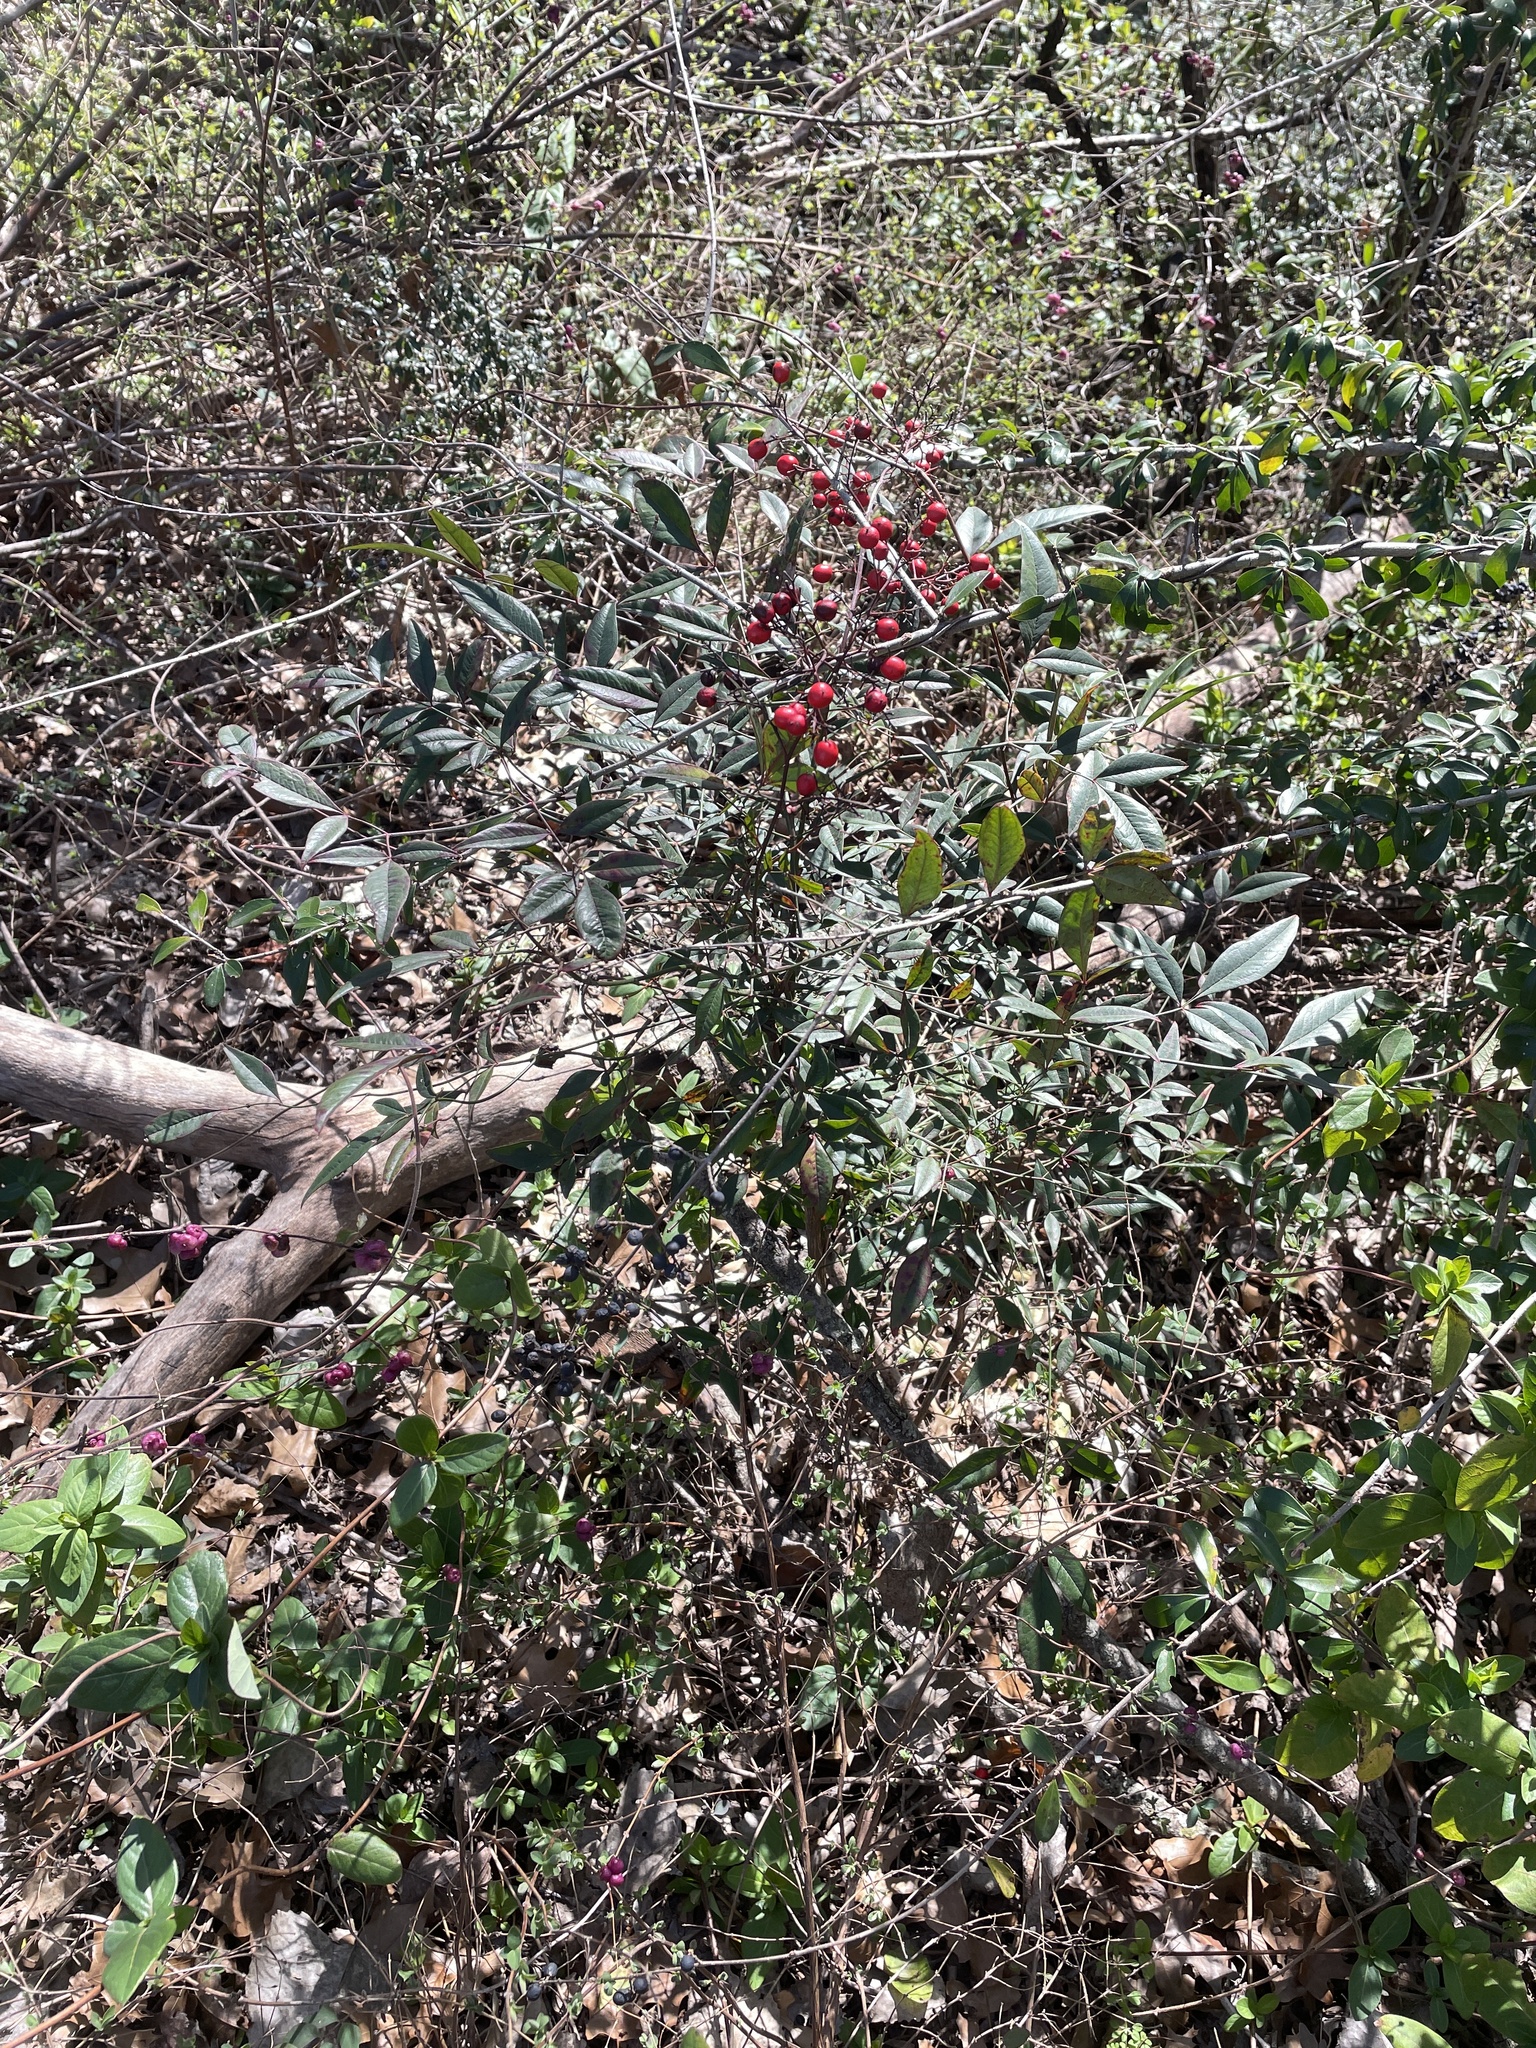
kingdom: Plantae
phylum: Tracheophyta
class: Magnoliopsida
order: Ranunculales
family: Berberidaceae
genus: Nandina
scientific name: Nandina domestica
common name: Sacred bamboo
